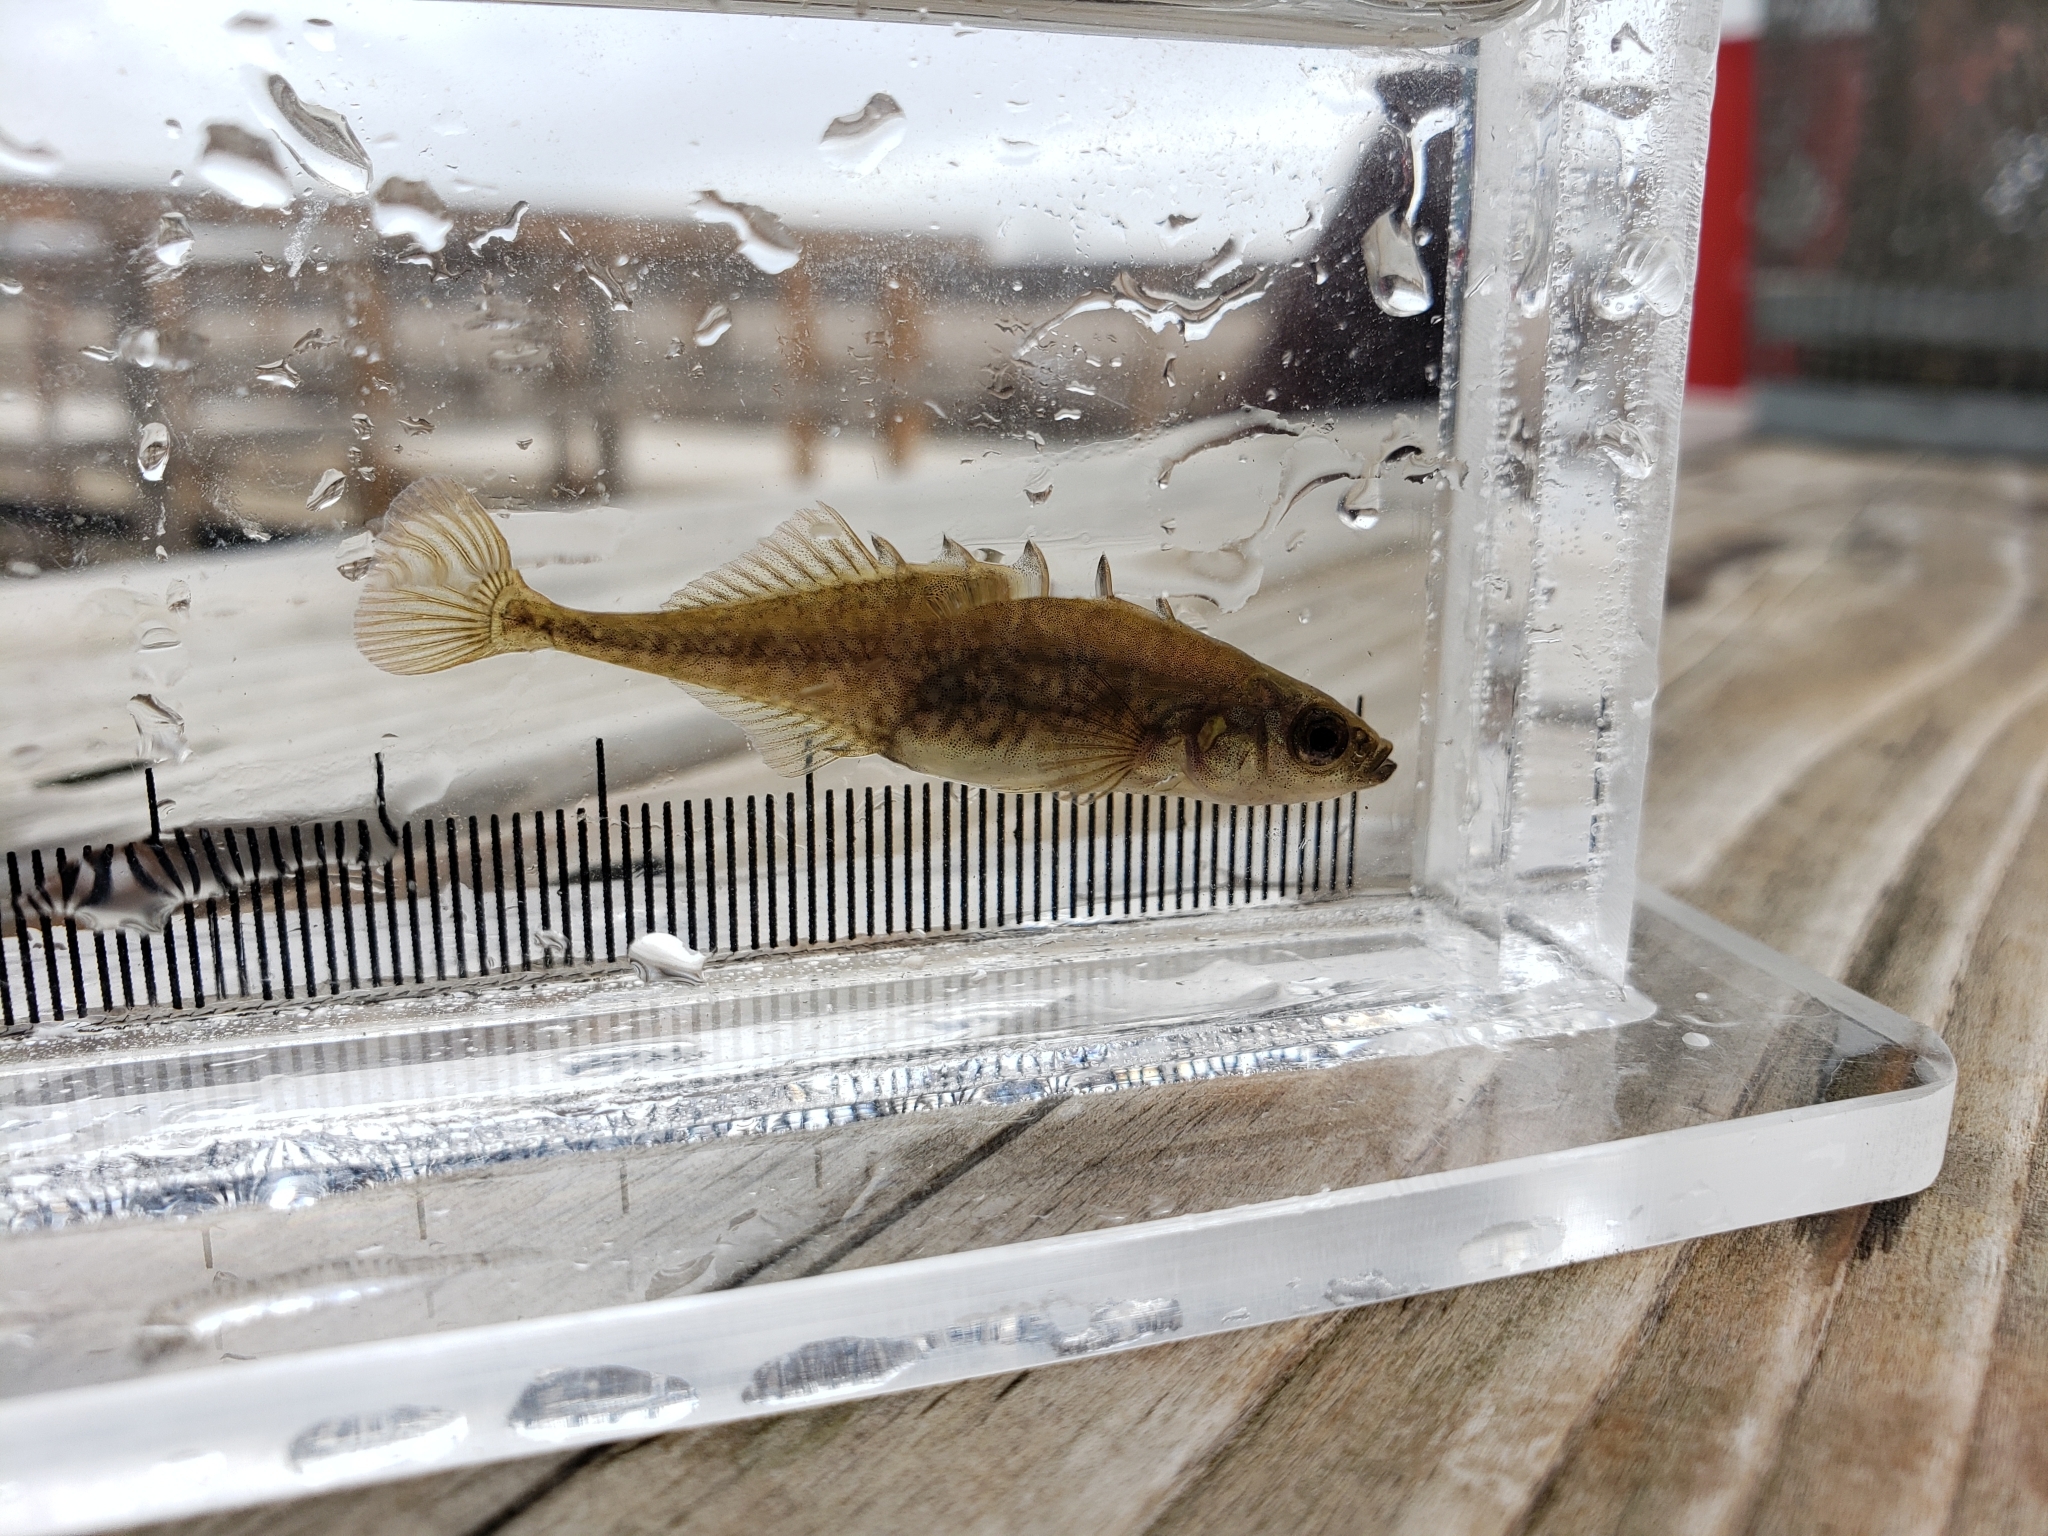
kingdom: Animalia
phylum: Chordata
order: Gasterosteiformes
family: Gasterosteidae
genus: Culaea
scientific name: Culaea inconstans
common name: Brook stickleback
